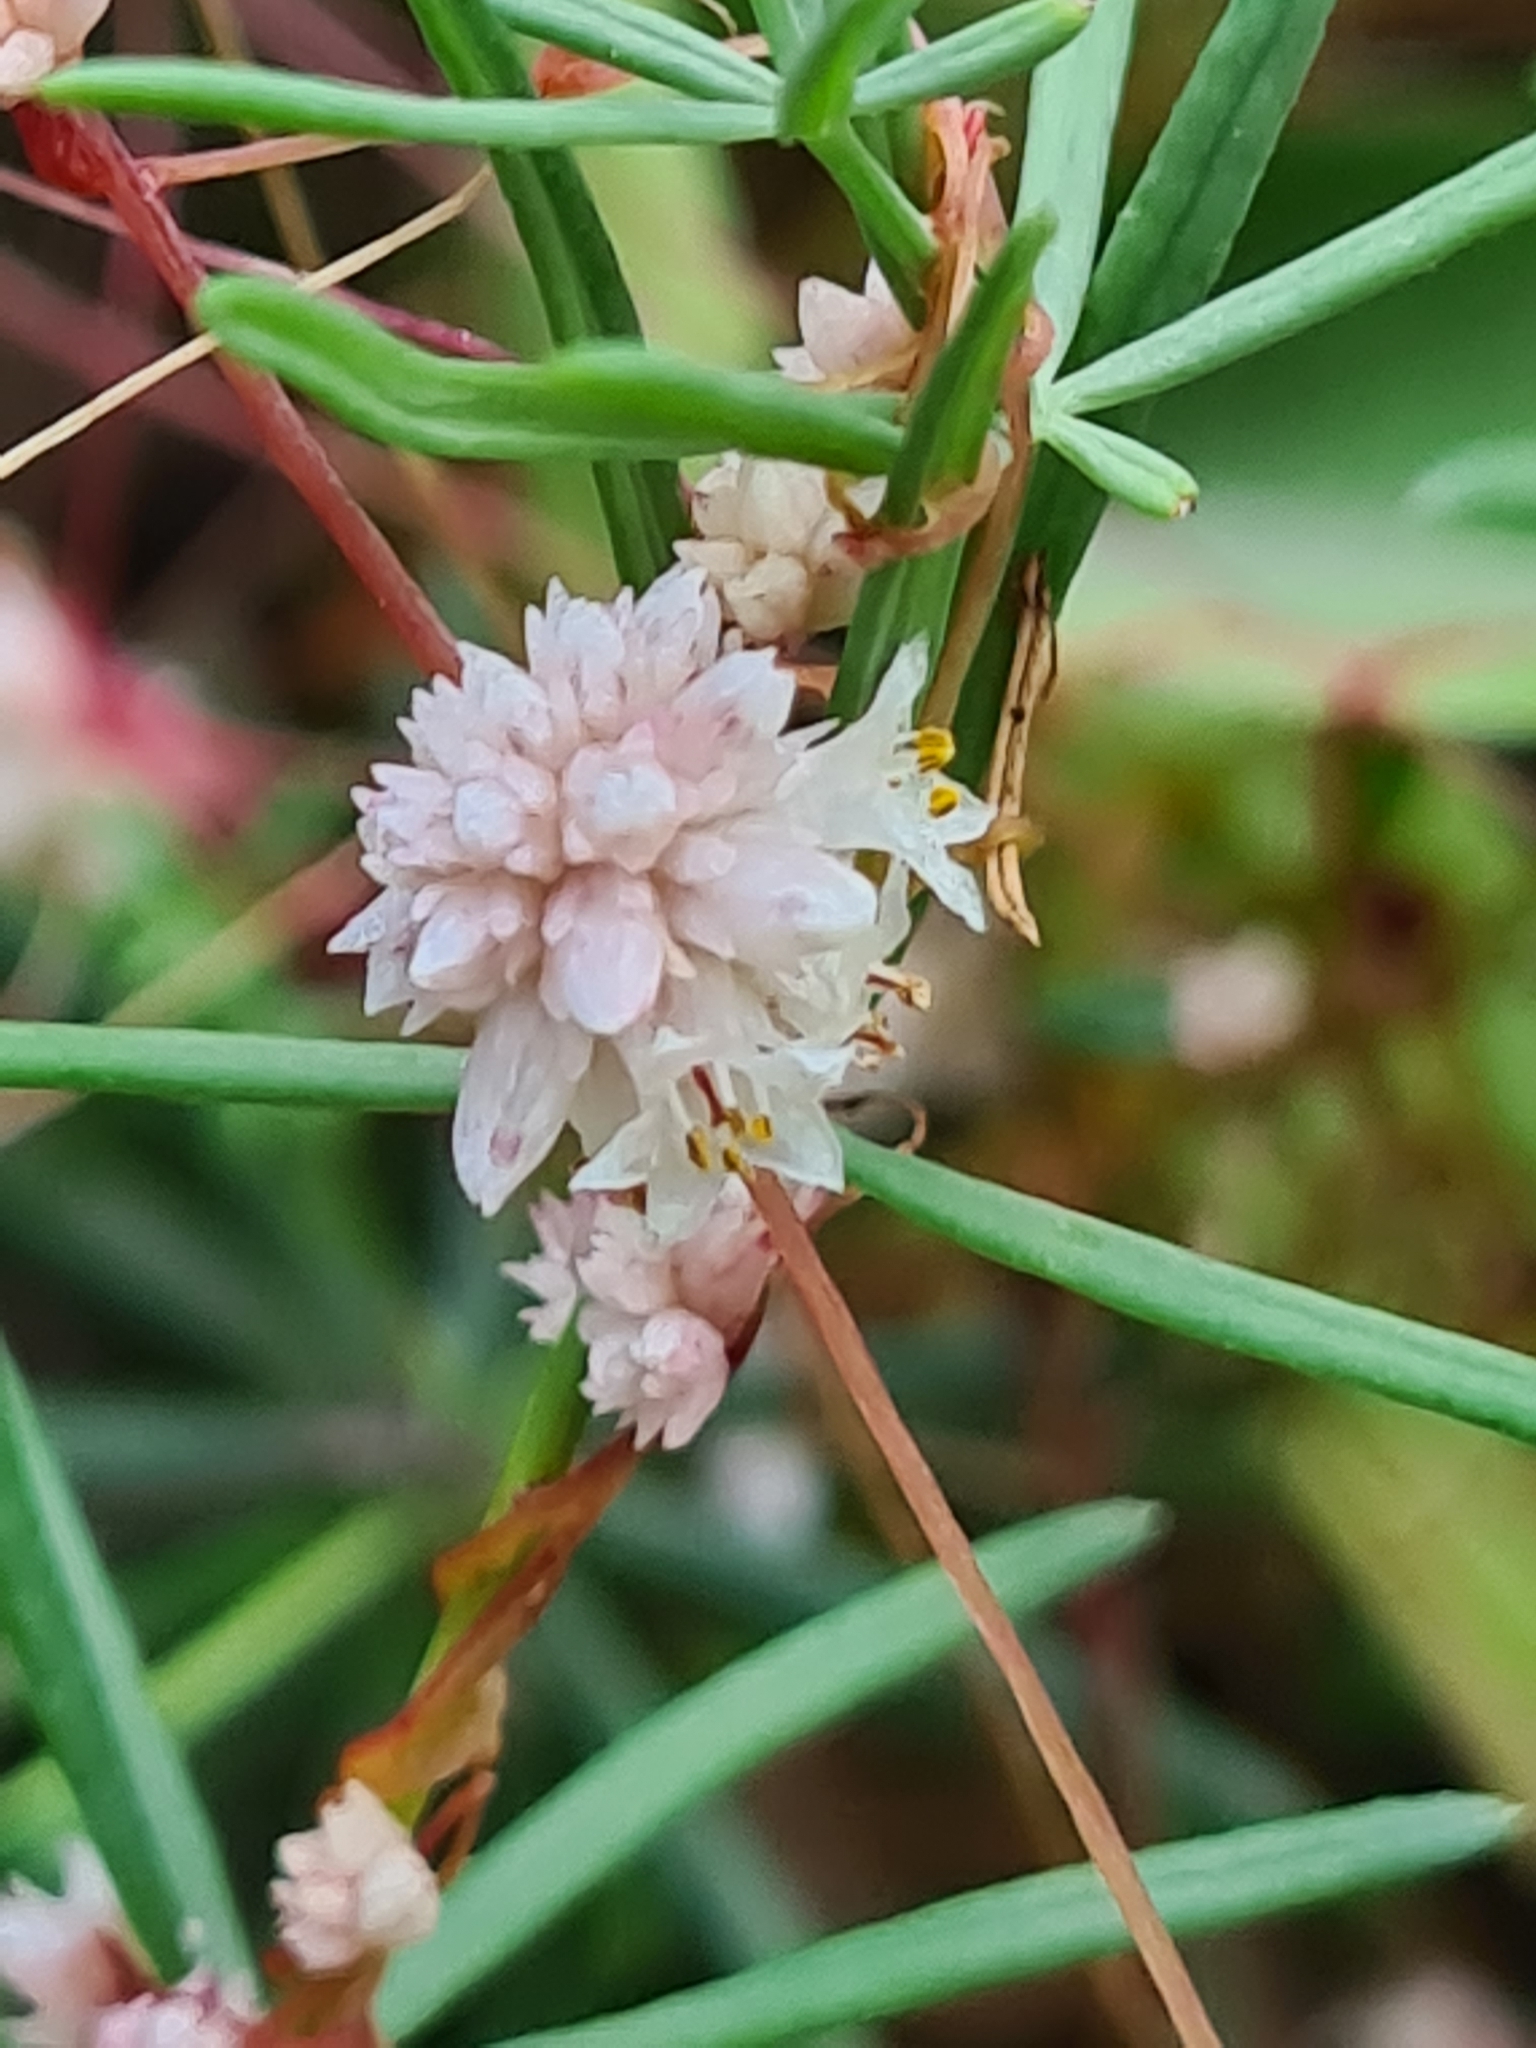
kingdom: Plantae
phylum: Tracheophyta
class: Magnoliopsida
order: Solanales
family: Convolvulaceae
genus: Cuscuta
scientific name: Cuscuta epithymum
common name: Clover dodder
